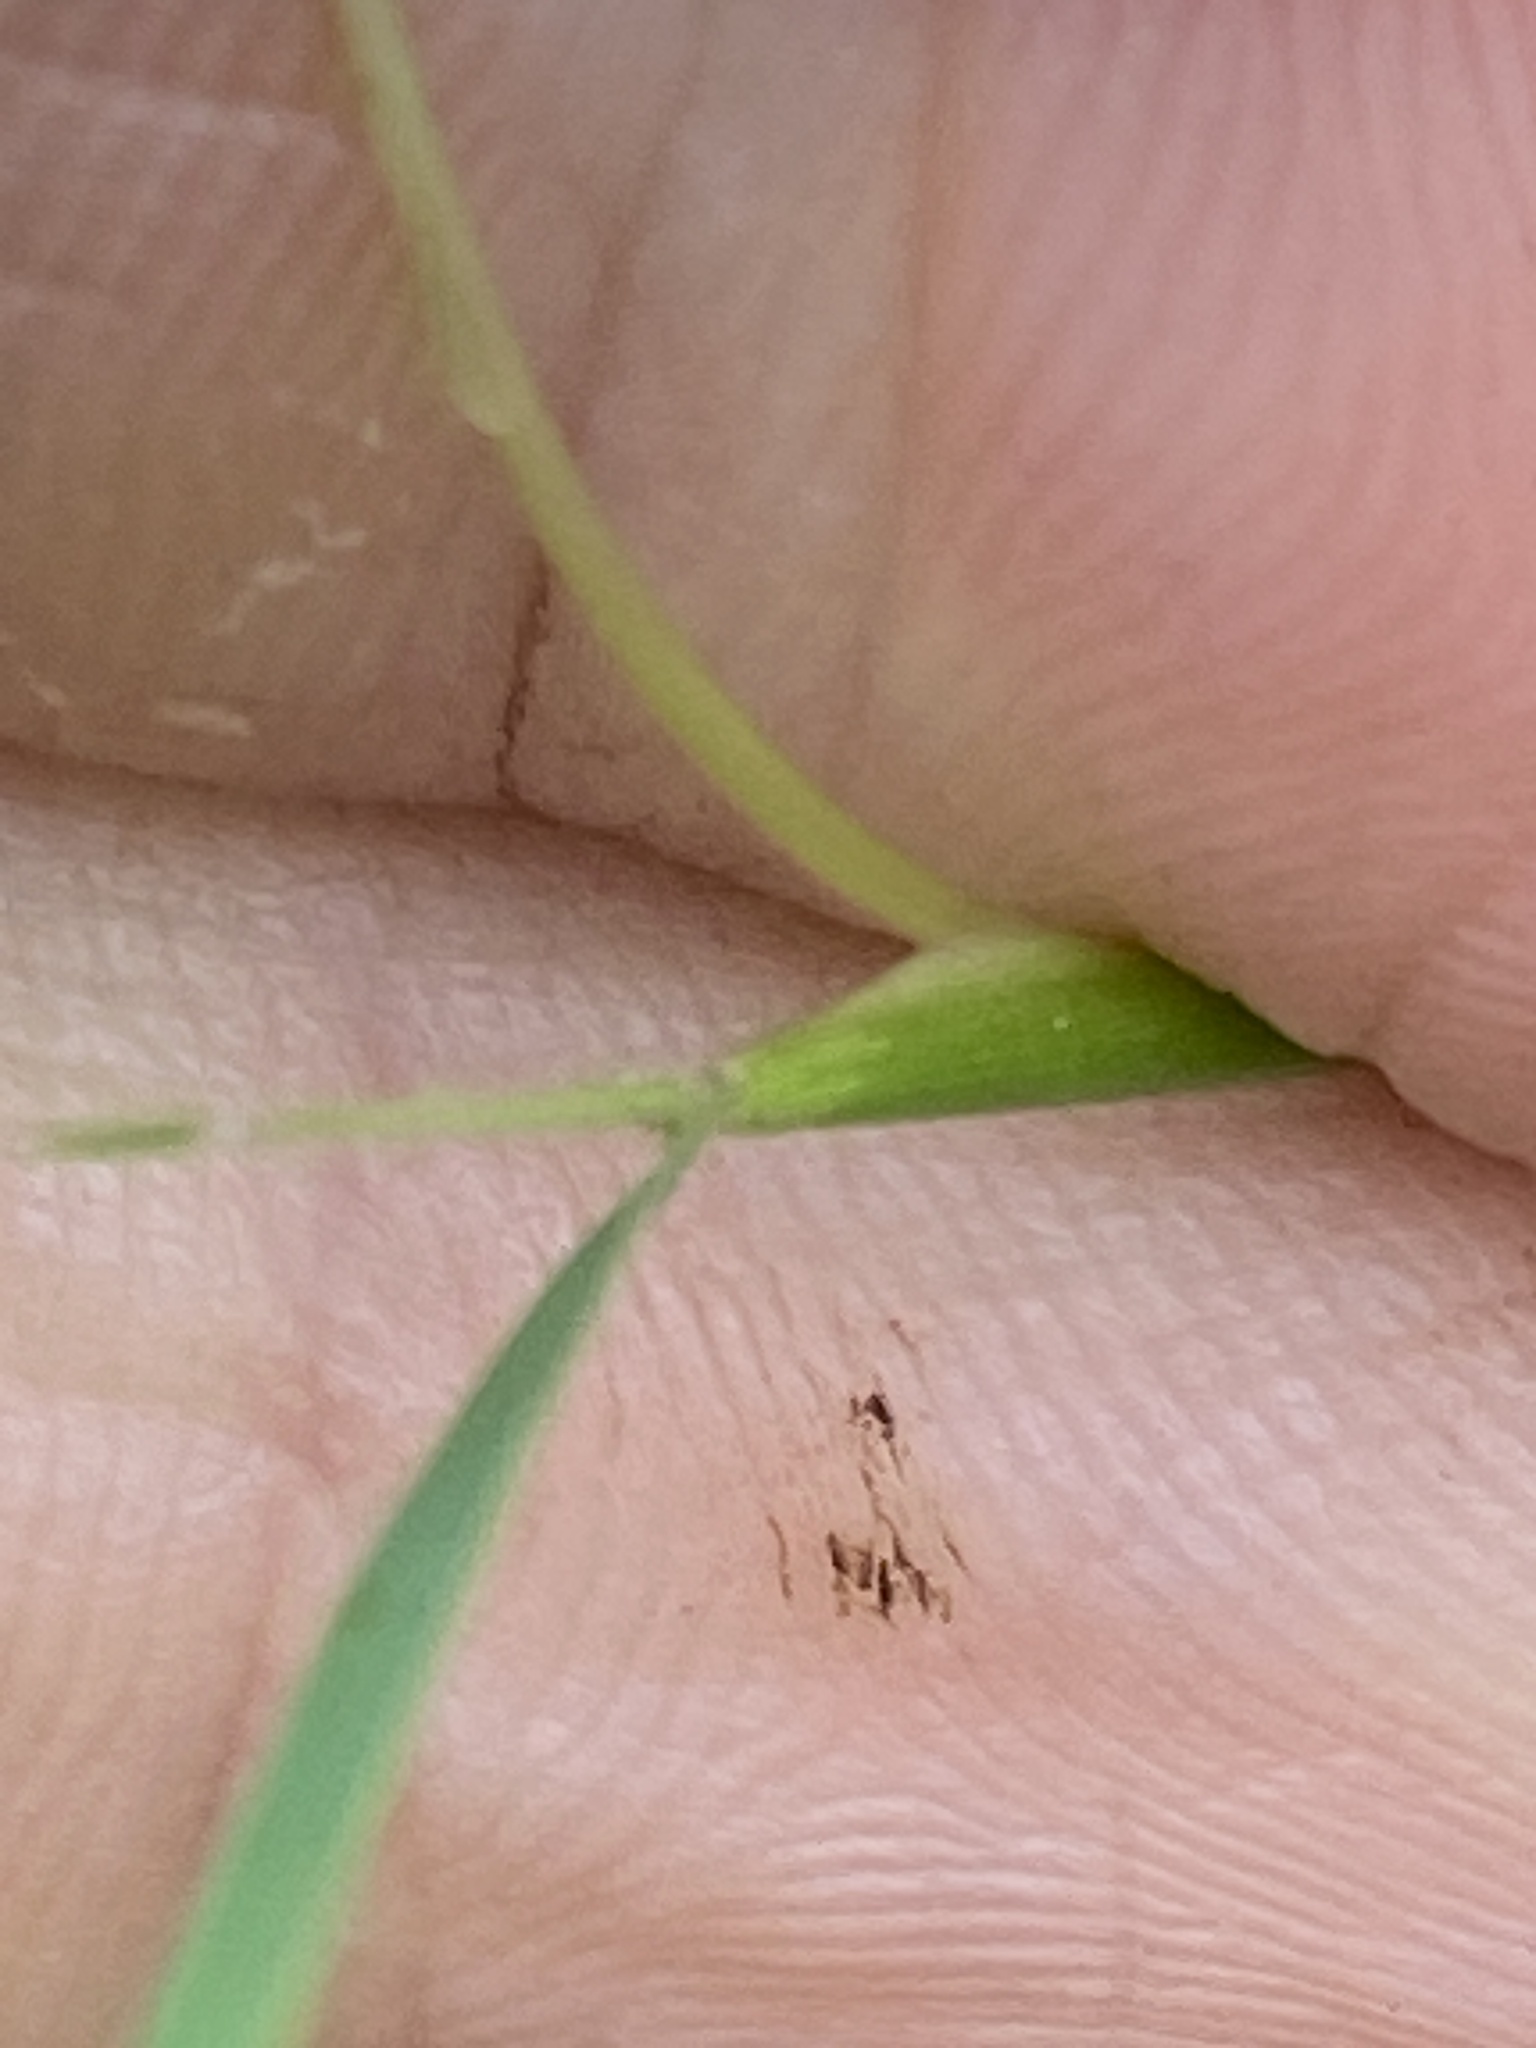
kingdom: Plantae
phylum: Tracheophyta
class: Liliopsida
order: Poales
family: Poaceae
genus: Dichanthium
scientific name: Dichanthium sericeum
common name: Silky bluestem
